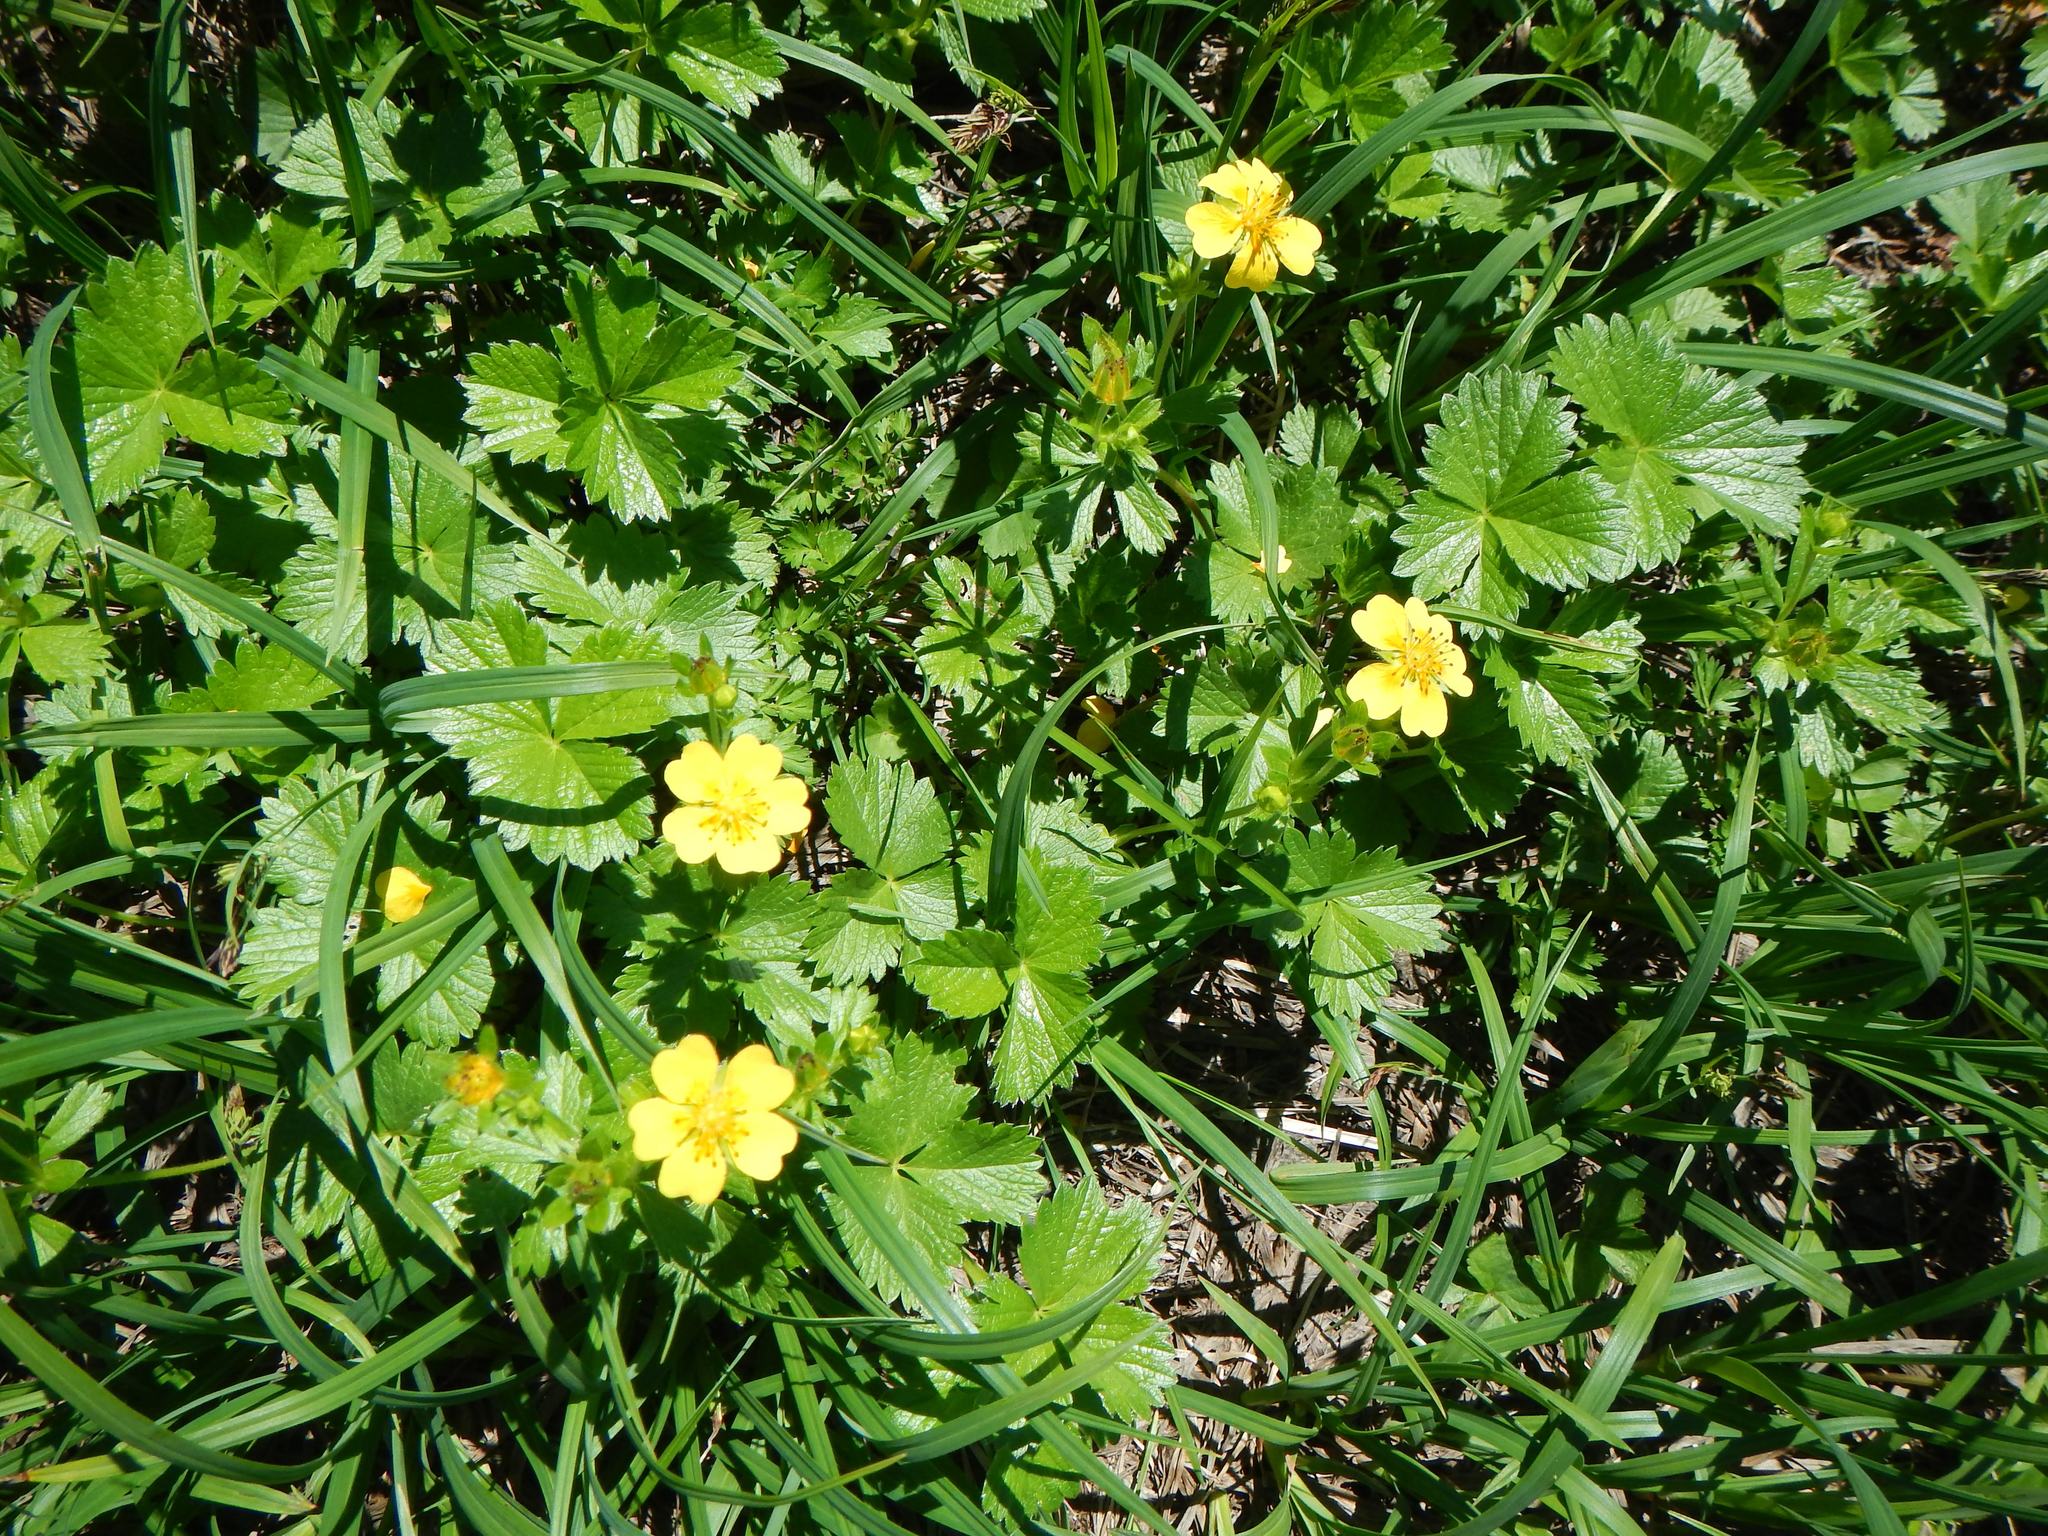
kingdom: Plantae
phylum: Tracheophyta
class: Magnoliopsida
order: Rosales
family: Rosaceae
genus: Potentilla
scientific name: Potentilla matsumurae
